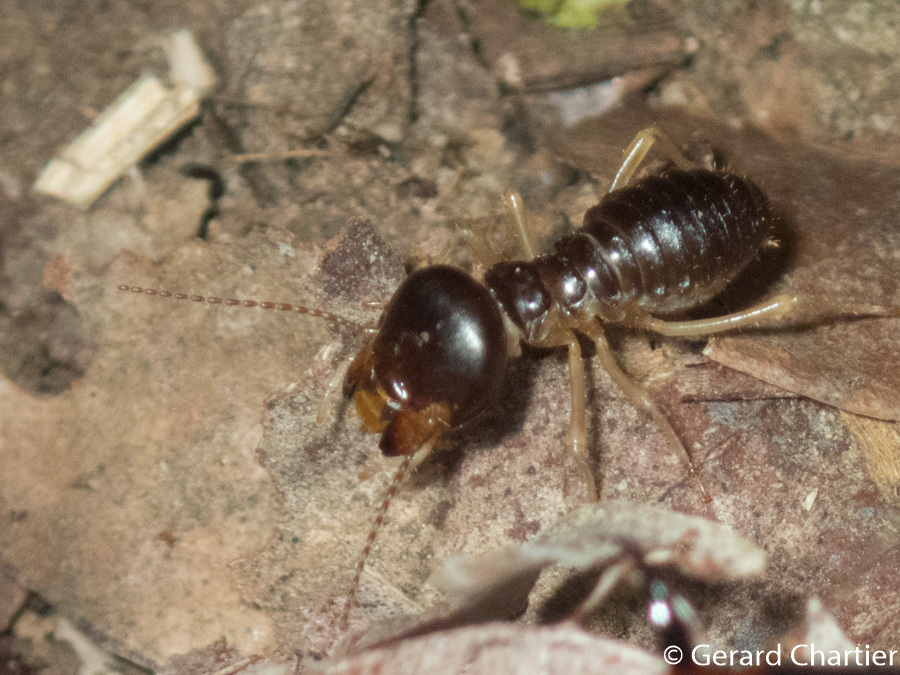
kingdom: Animalia
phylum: Arthropoda
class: Insecta
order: Blattodea
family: Termitidae
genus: Macrotermes
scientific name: Macrotermes carbonarius
